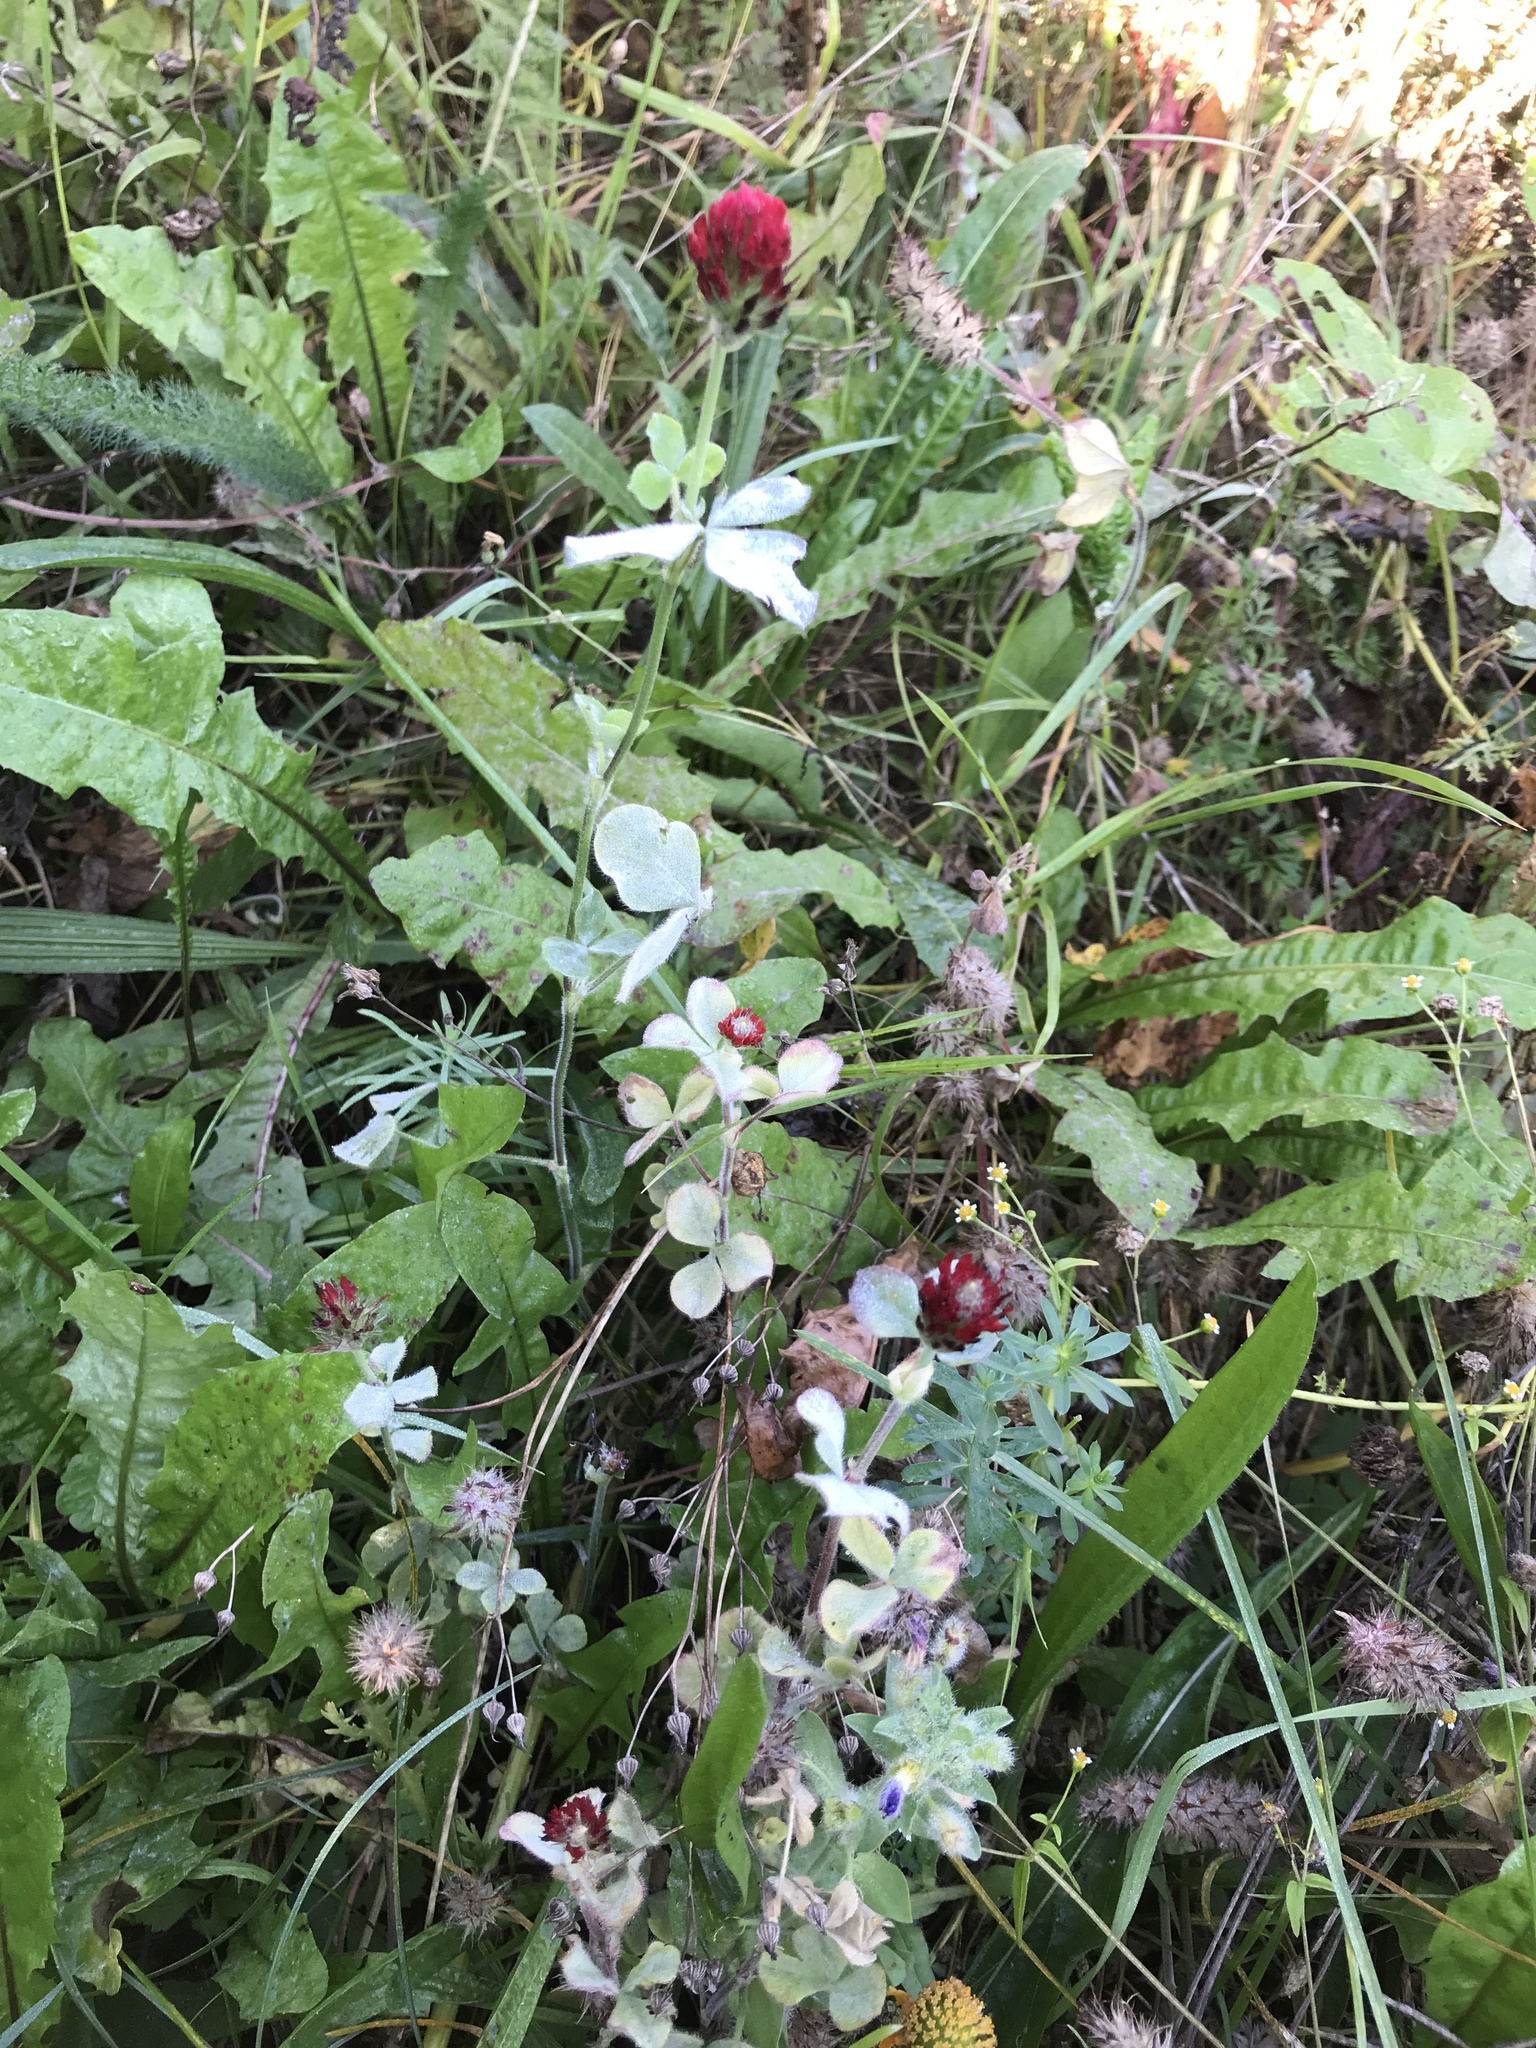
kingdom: Plantae
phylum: Tracheophyta
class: Magnoliopsida
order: Fabales
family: Fabaceae
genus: Trifolium
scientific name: Trifolium incarnatum
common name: Crimson clover
